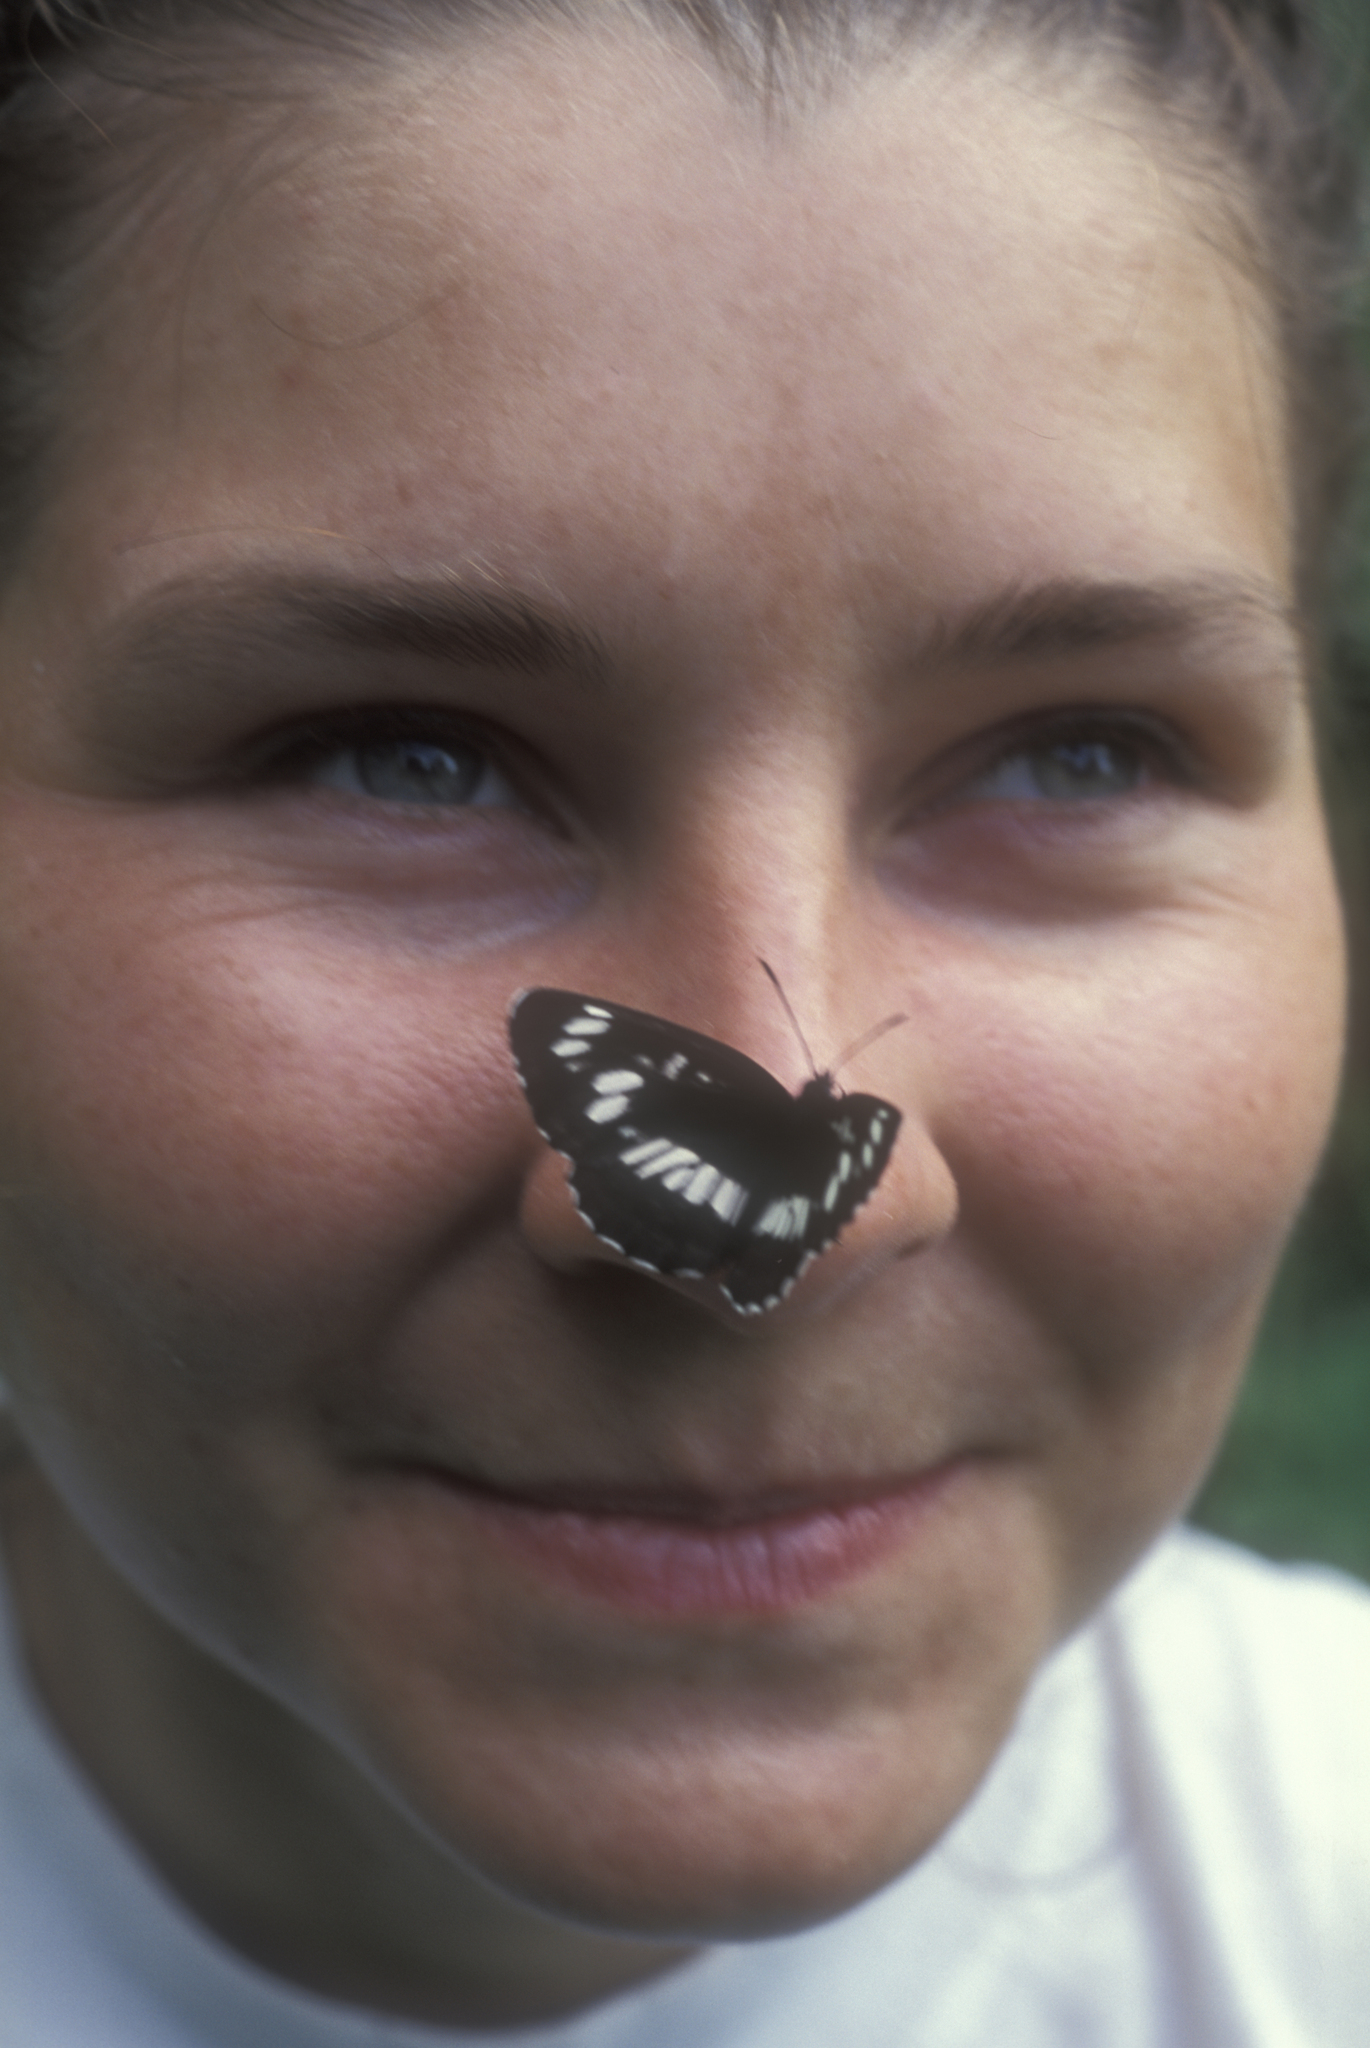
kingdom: Animalia
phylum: Arthropoda
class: Insecta
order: Lepidoptera
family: Nymphalidae
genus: Neptis
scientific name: Neptis rivularis
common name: Hungarian glider
